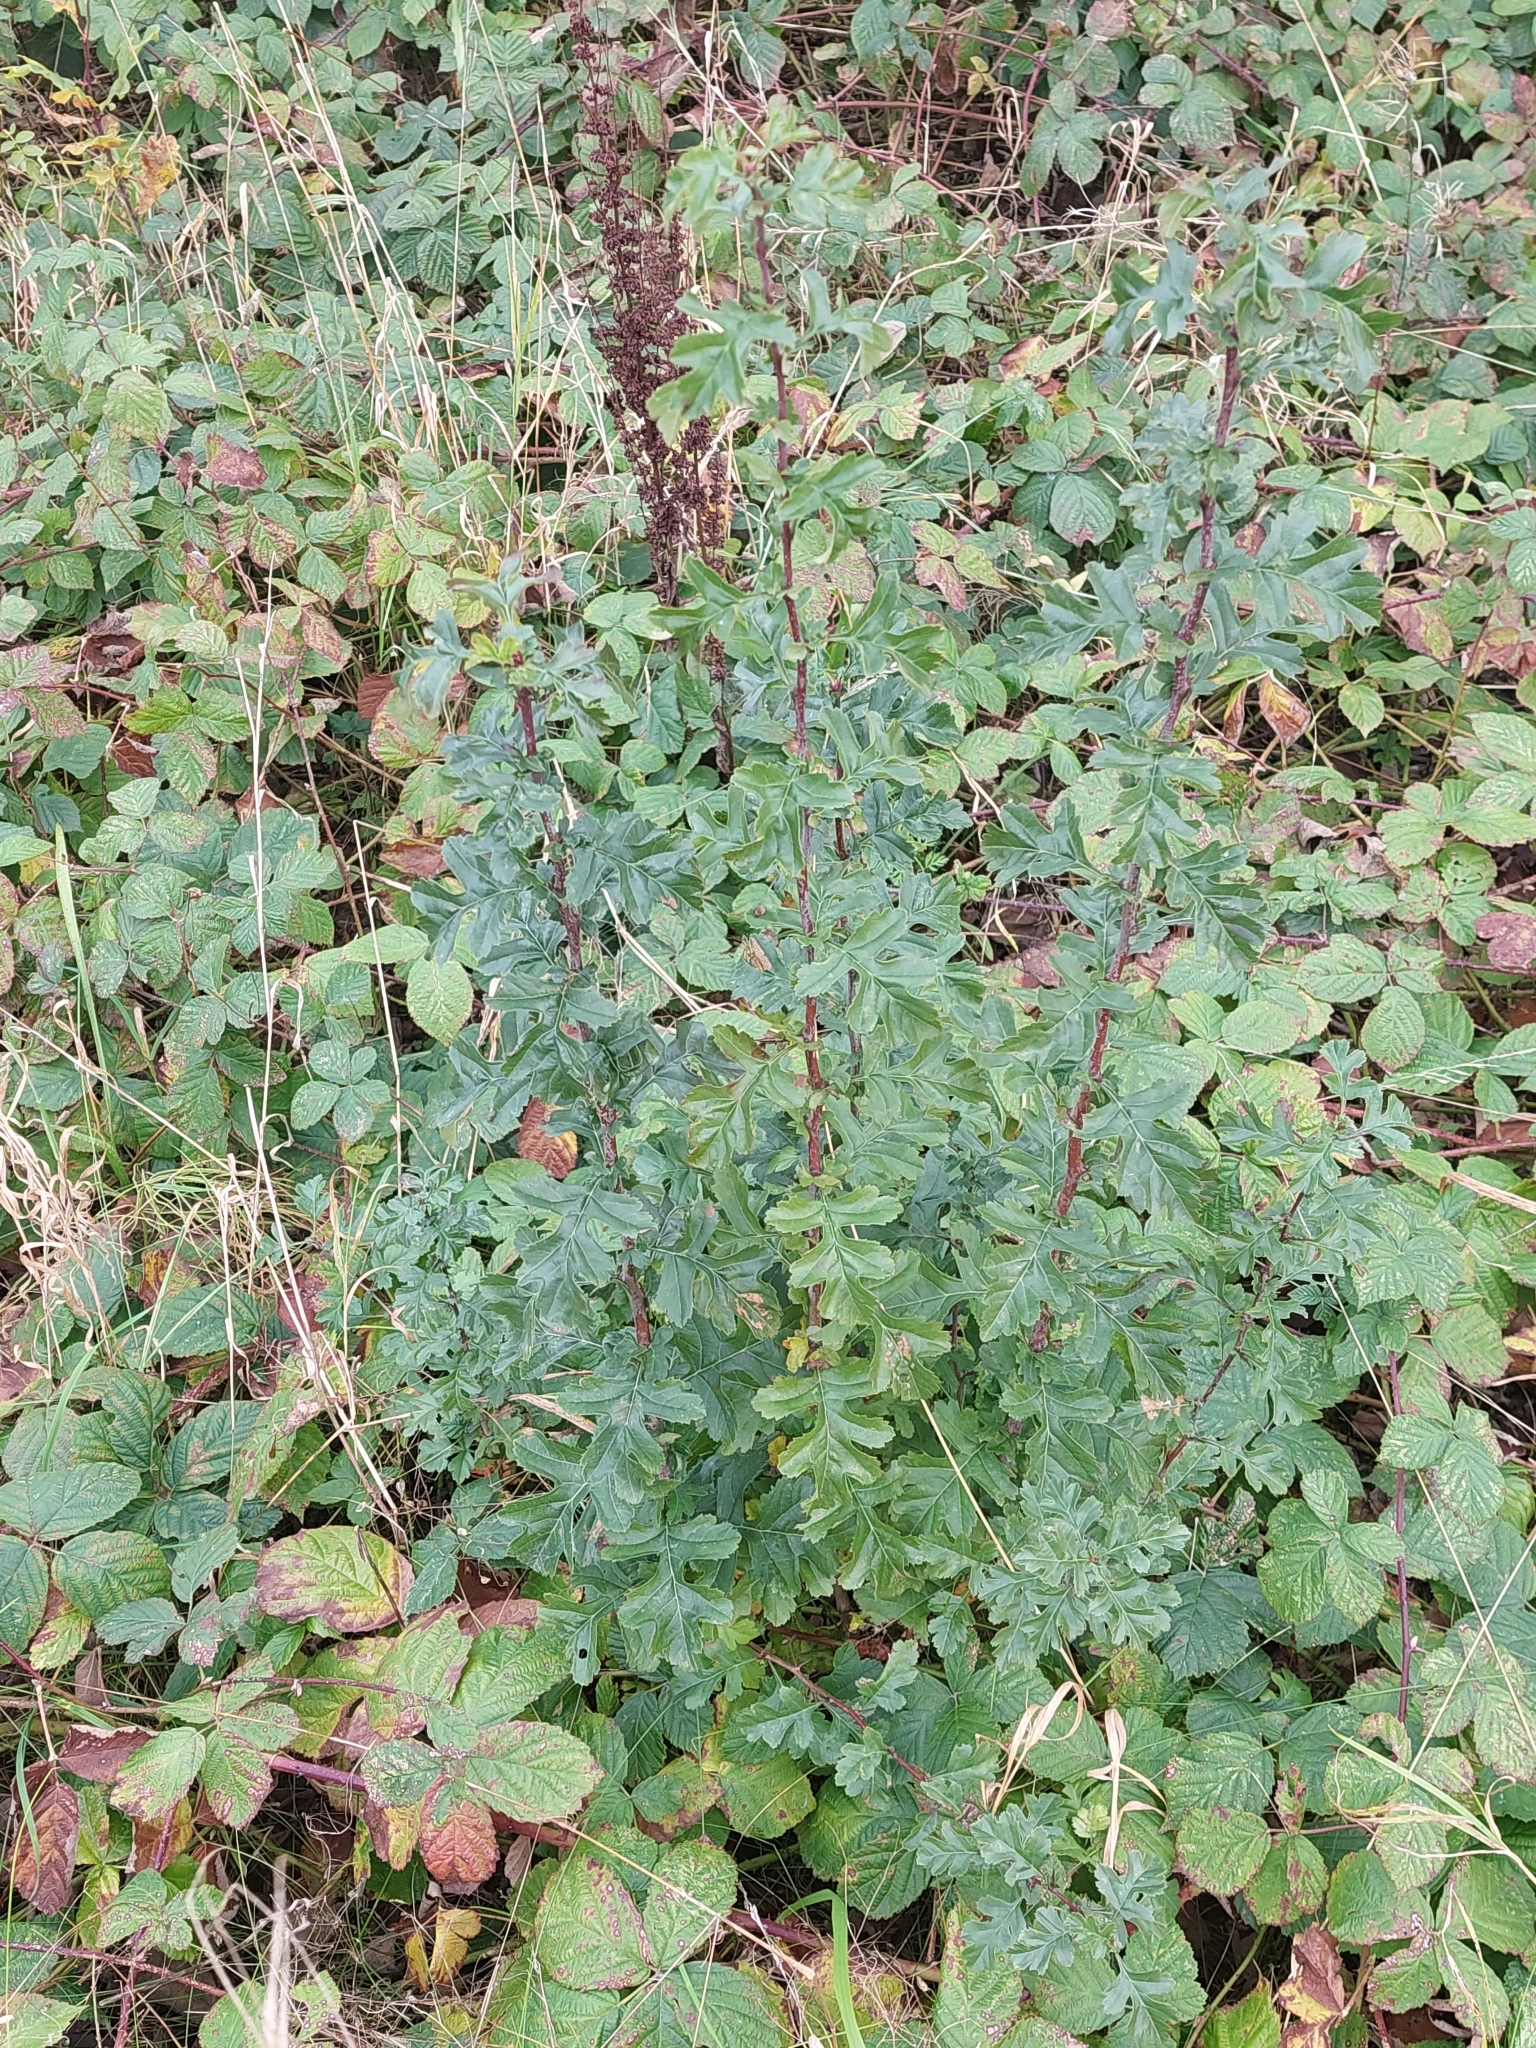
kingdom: Plantae
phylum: Tracheophyta
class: Magnoliopsida
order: Rosales
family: Rosaceae
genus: Crataegus
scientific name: Crataegus monogyna
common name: Hawthorn
